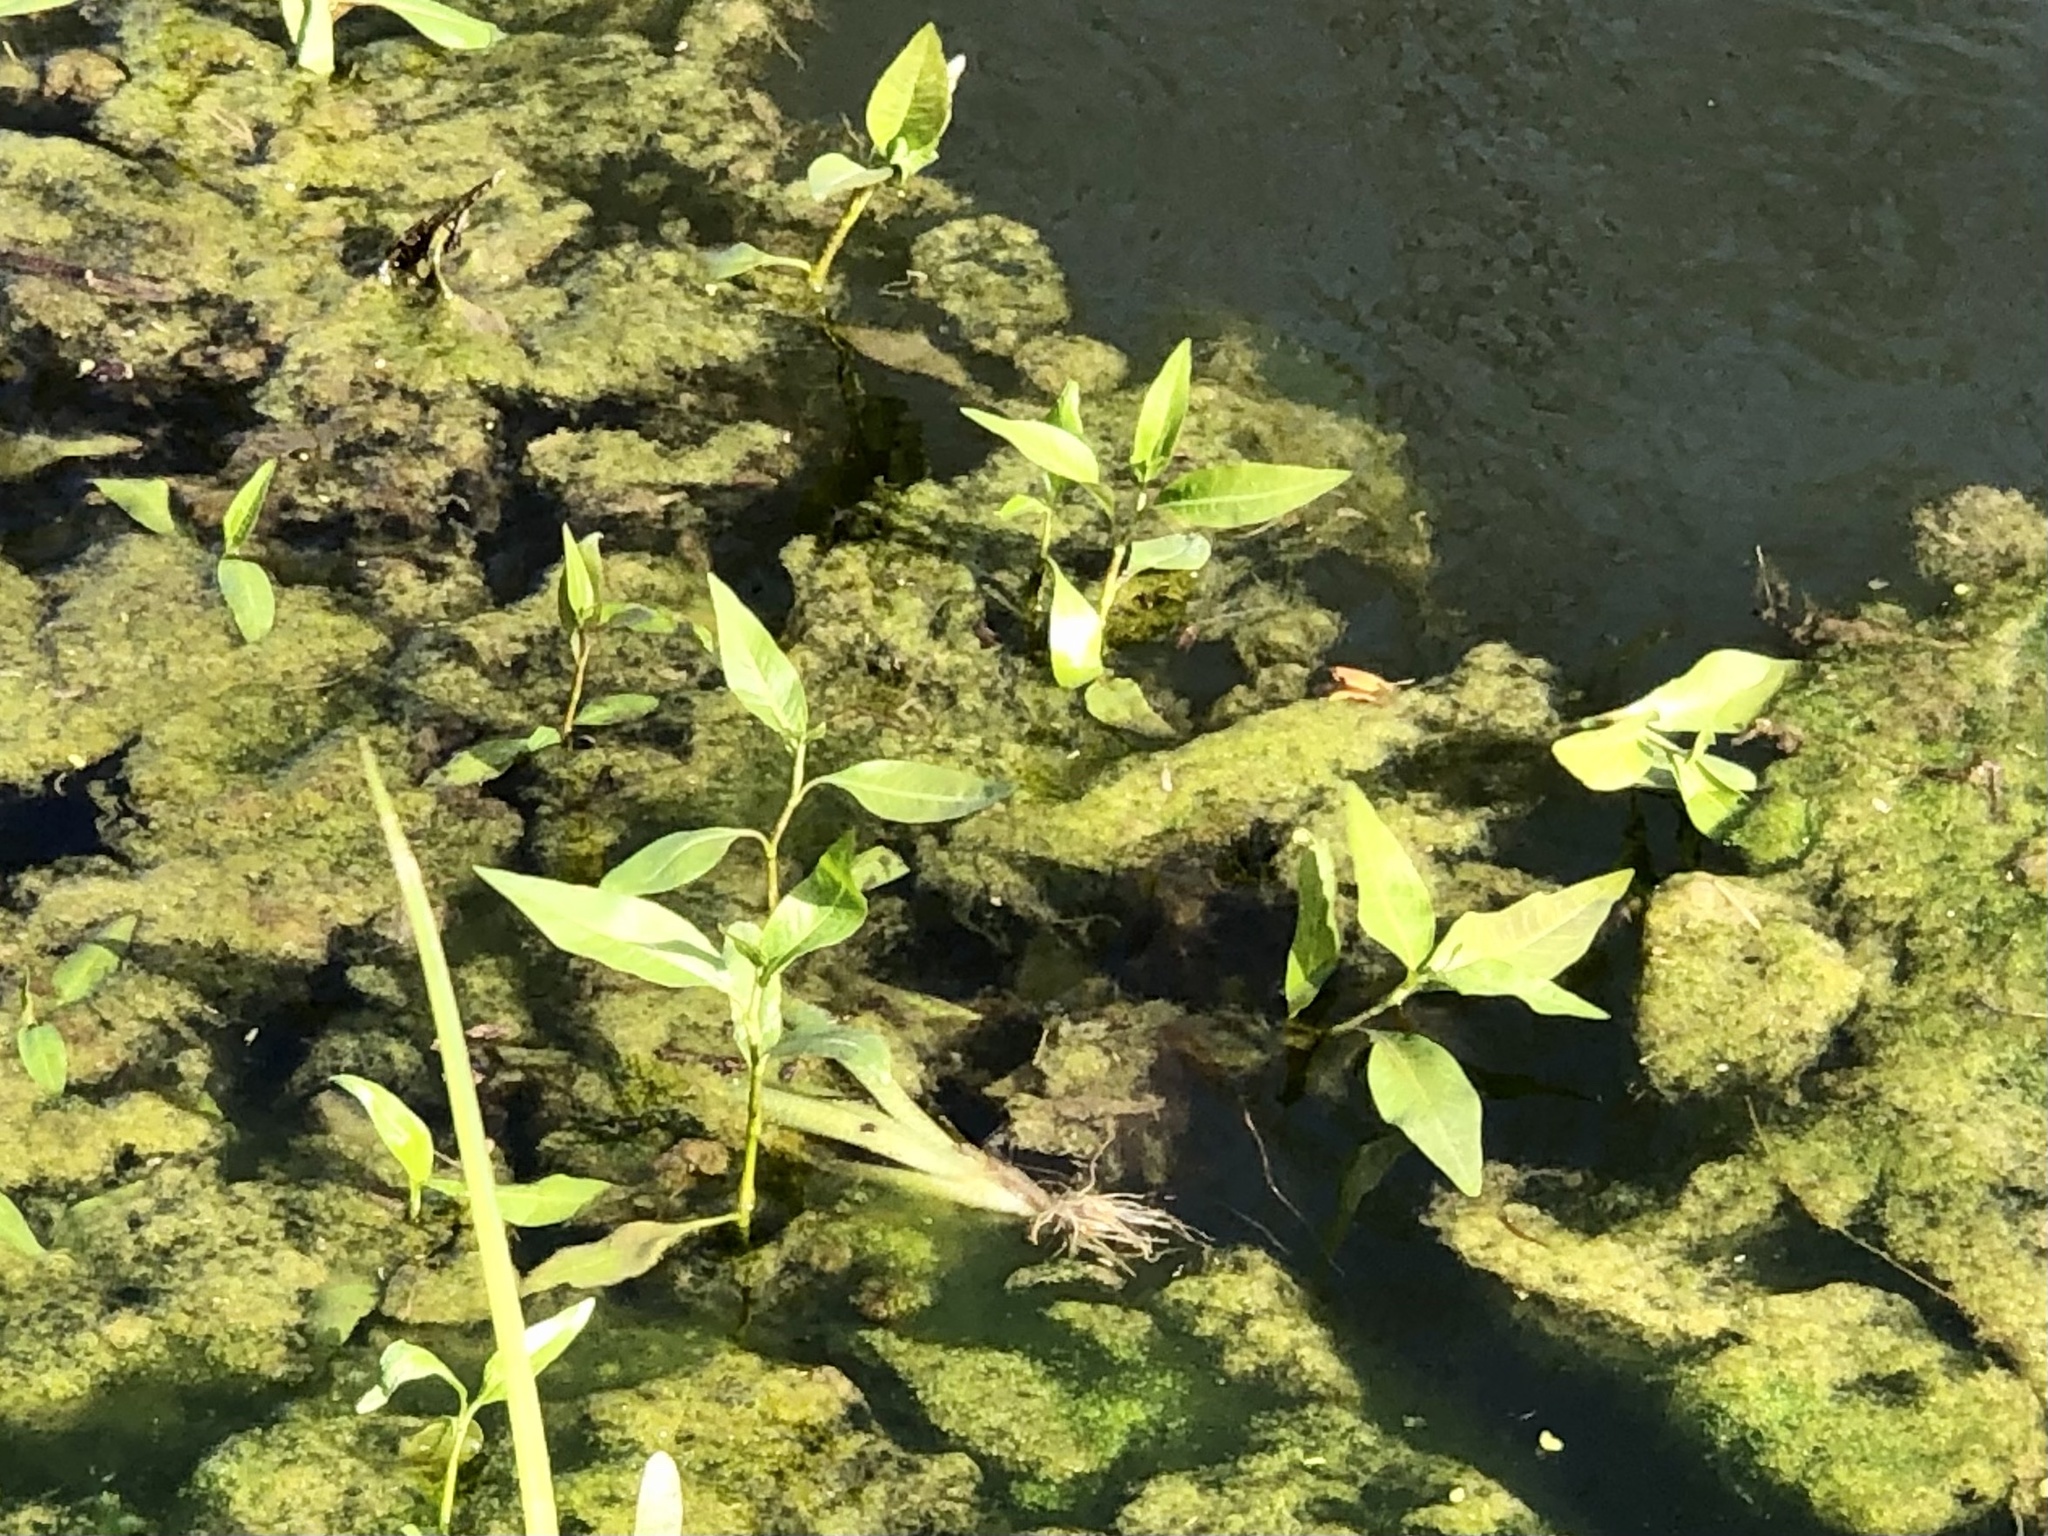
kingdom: Plantae
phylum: Tracheophyta
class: Magnoliopsida
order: Caryophyllales
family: Polygonaceae
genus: Persicaria
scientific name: Persicaria amphibia
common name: Amphibious bistort
